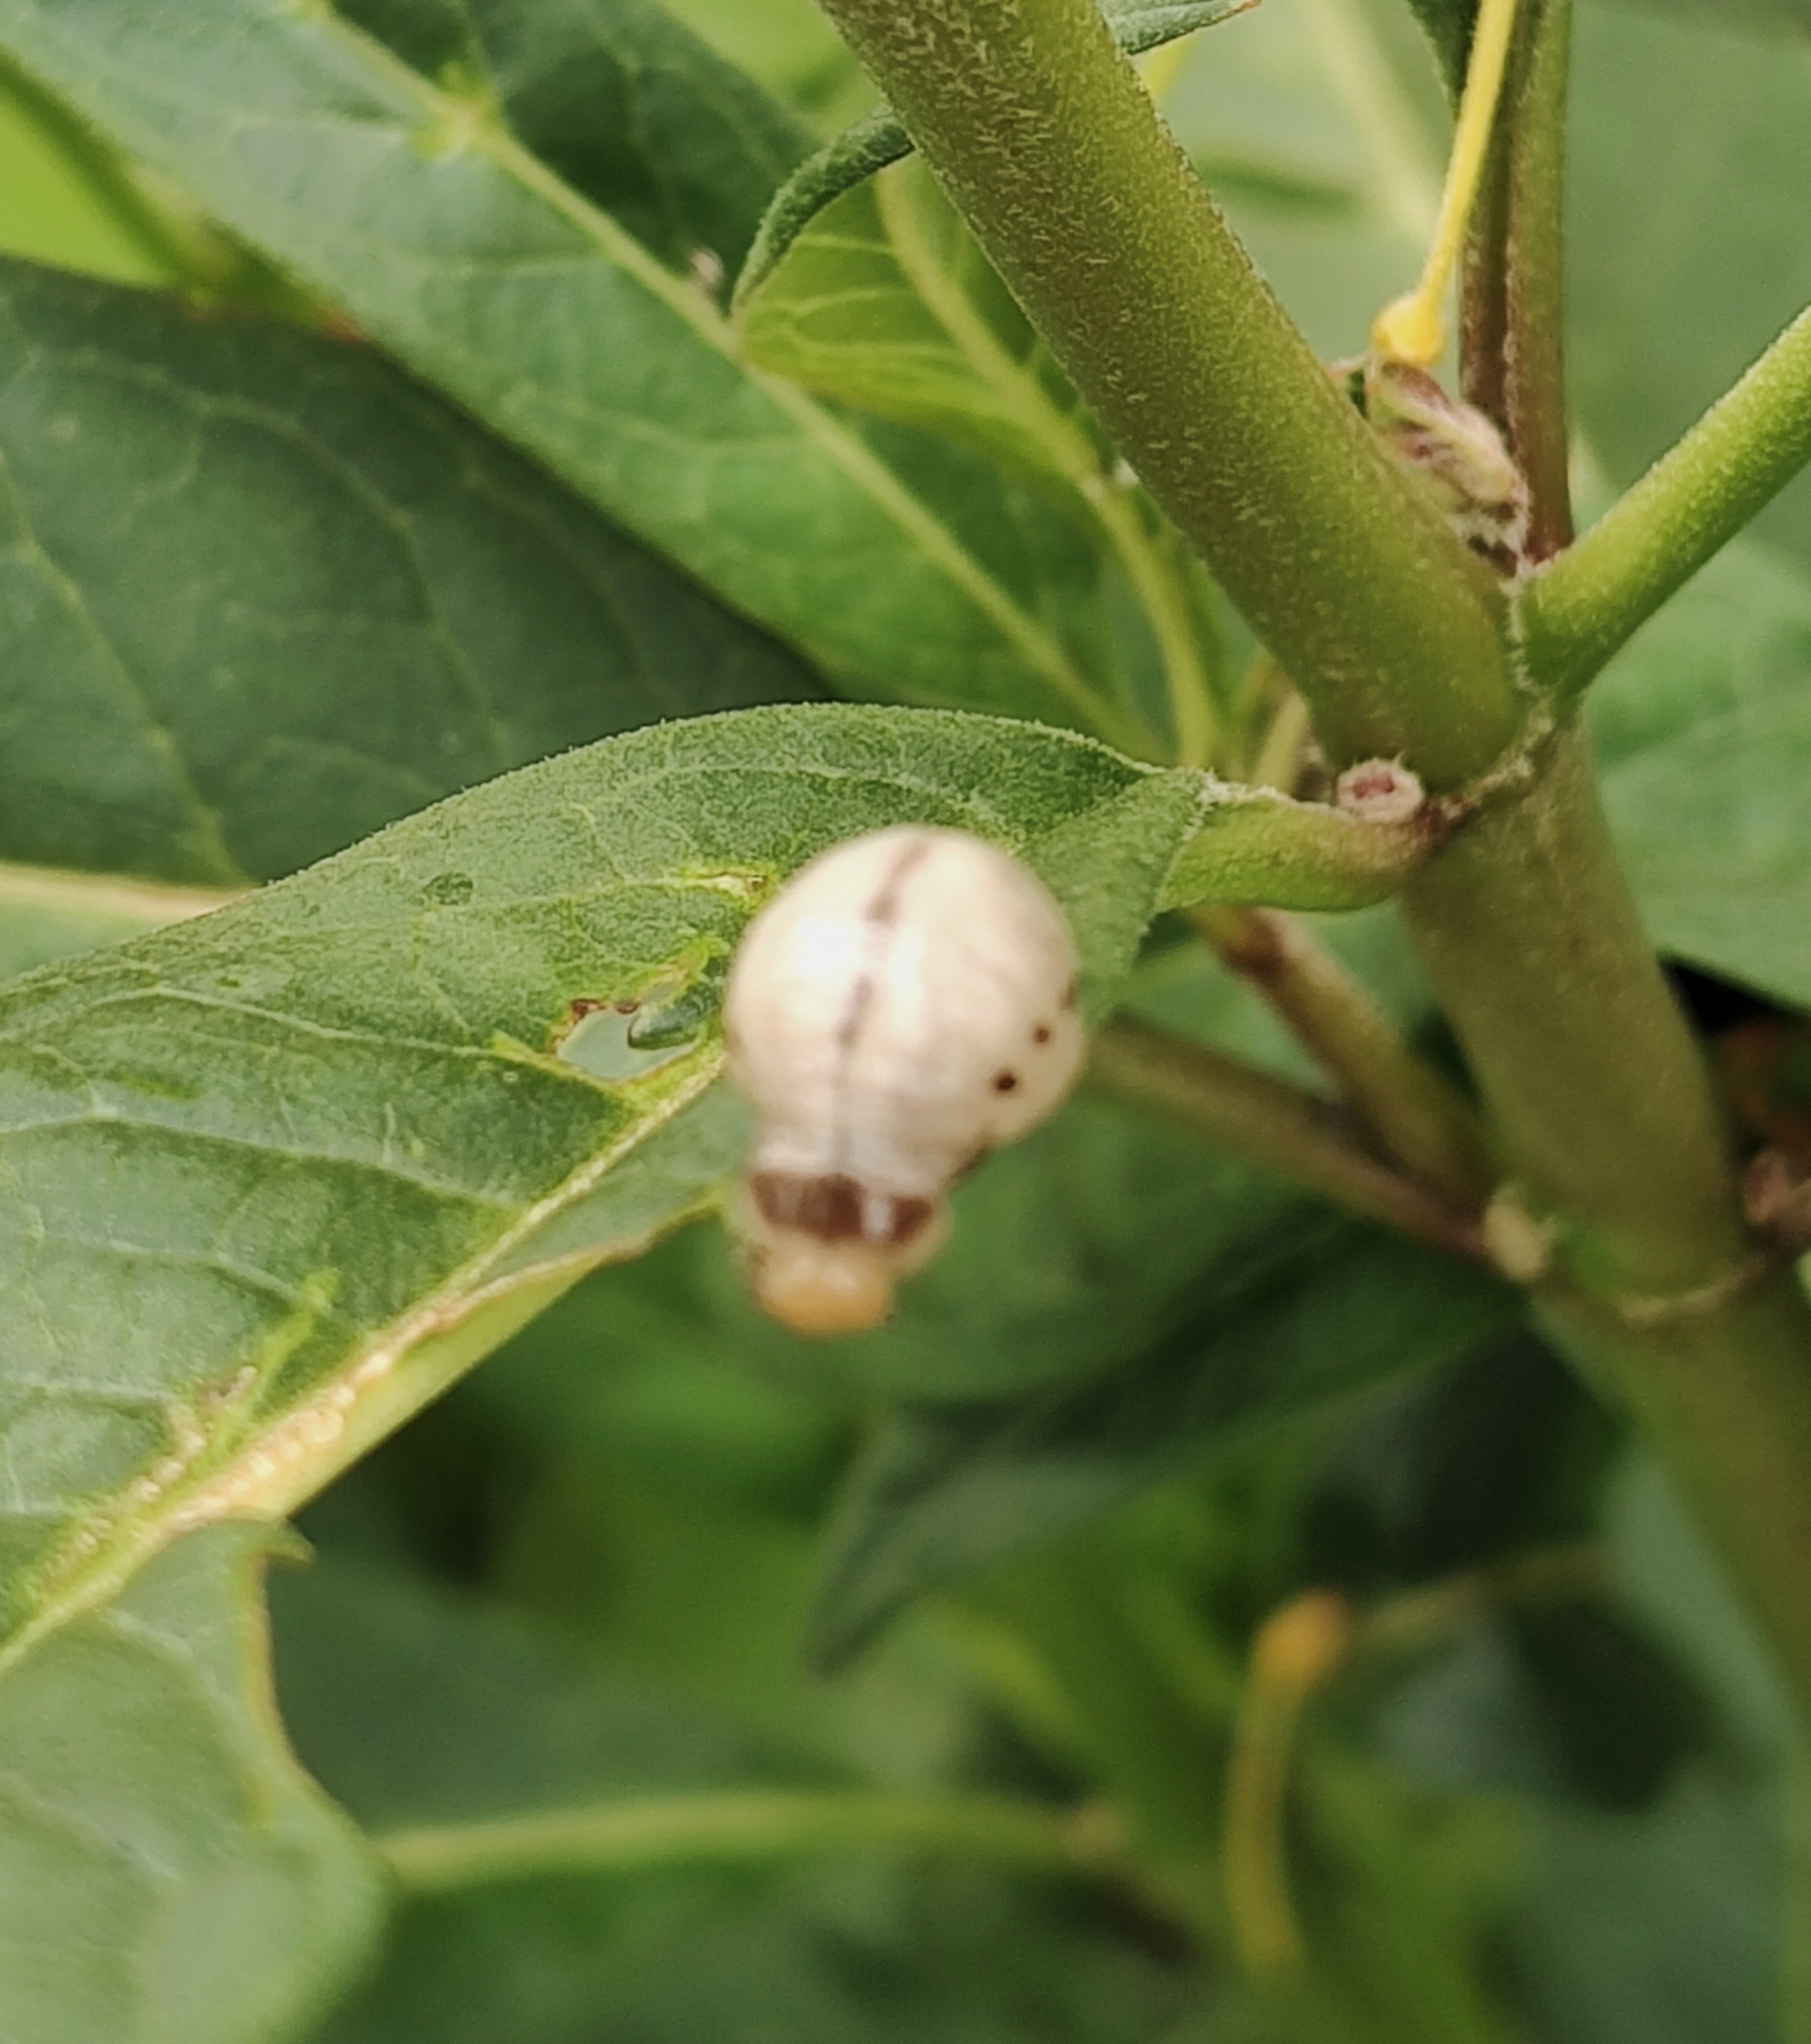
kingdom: Animalia
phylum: Arthropoda
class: Insecta
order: Coleoptera
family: Chrysomelidae
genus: Labidomera
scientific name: Labidomera clivicollis
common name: Swamp milkweed leaf beetle
